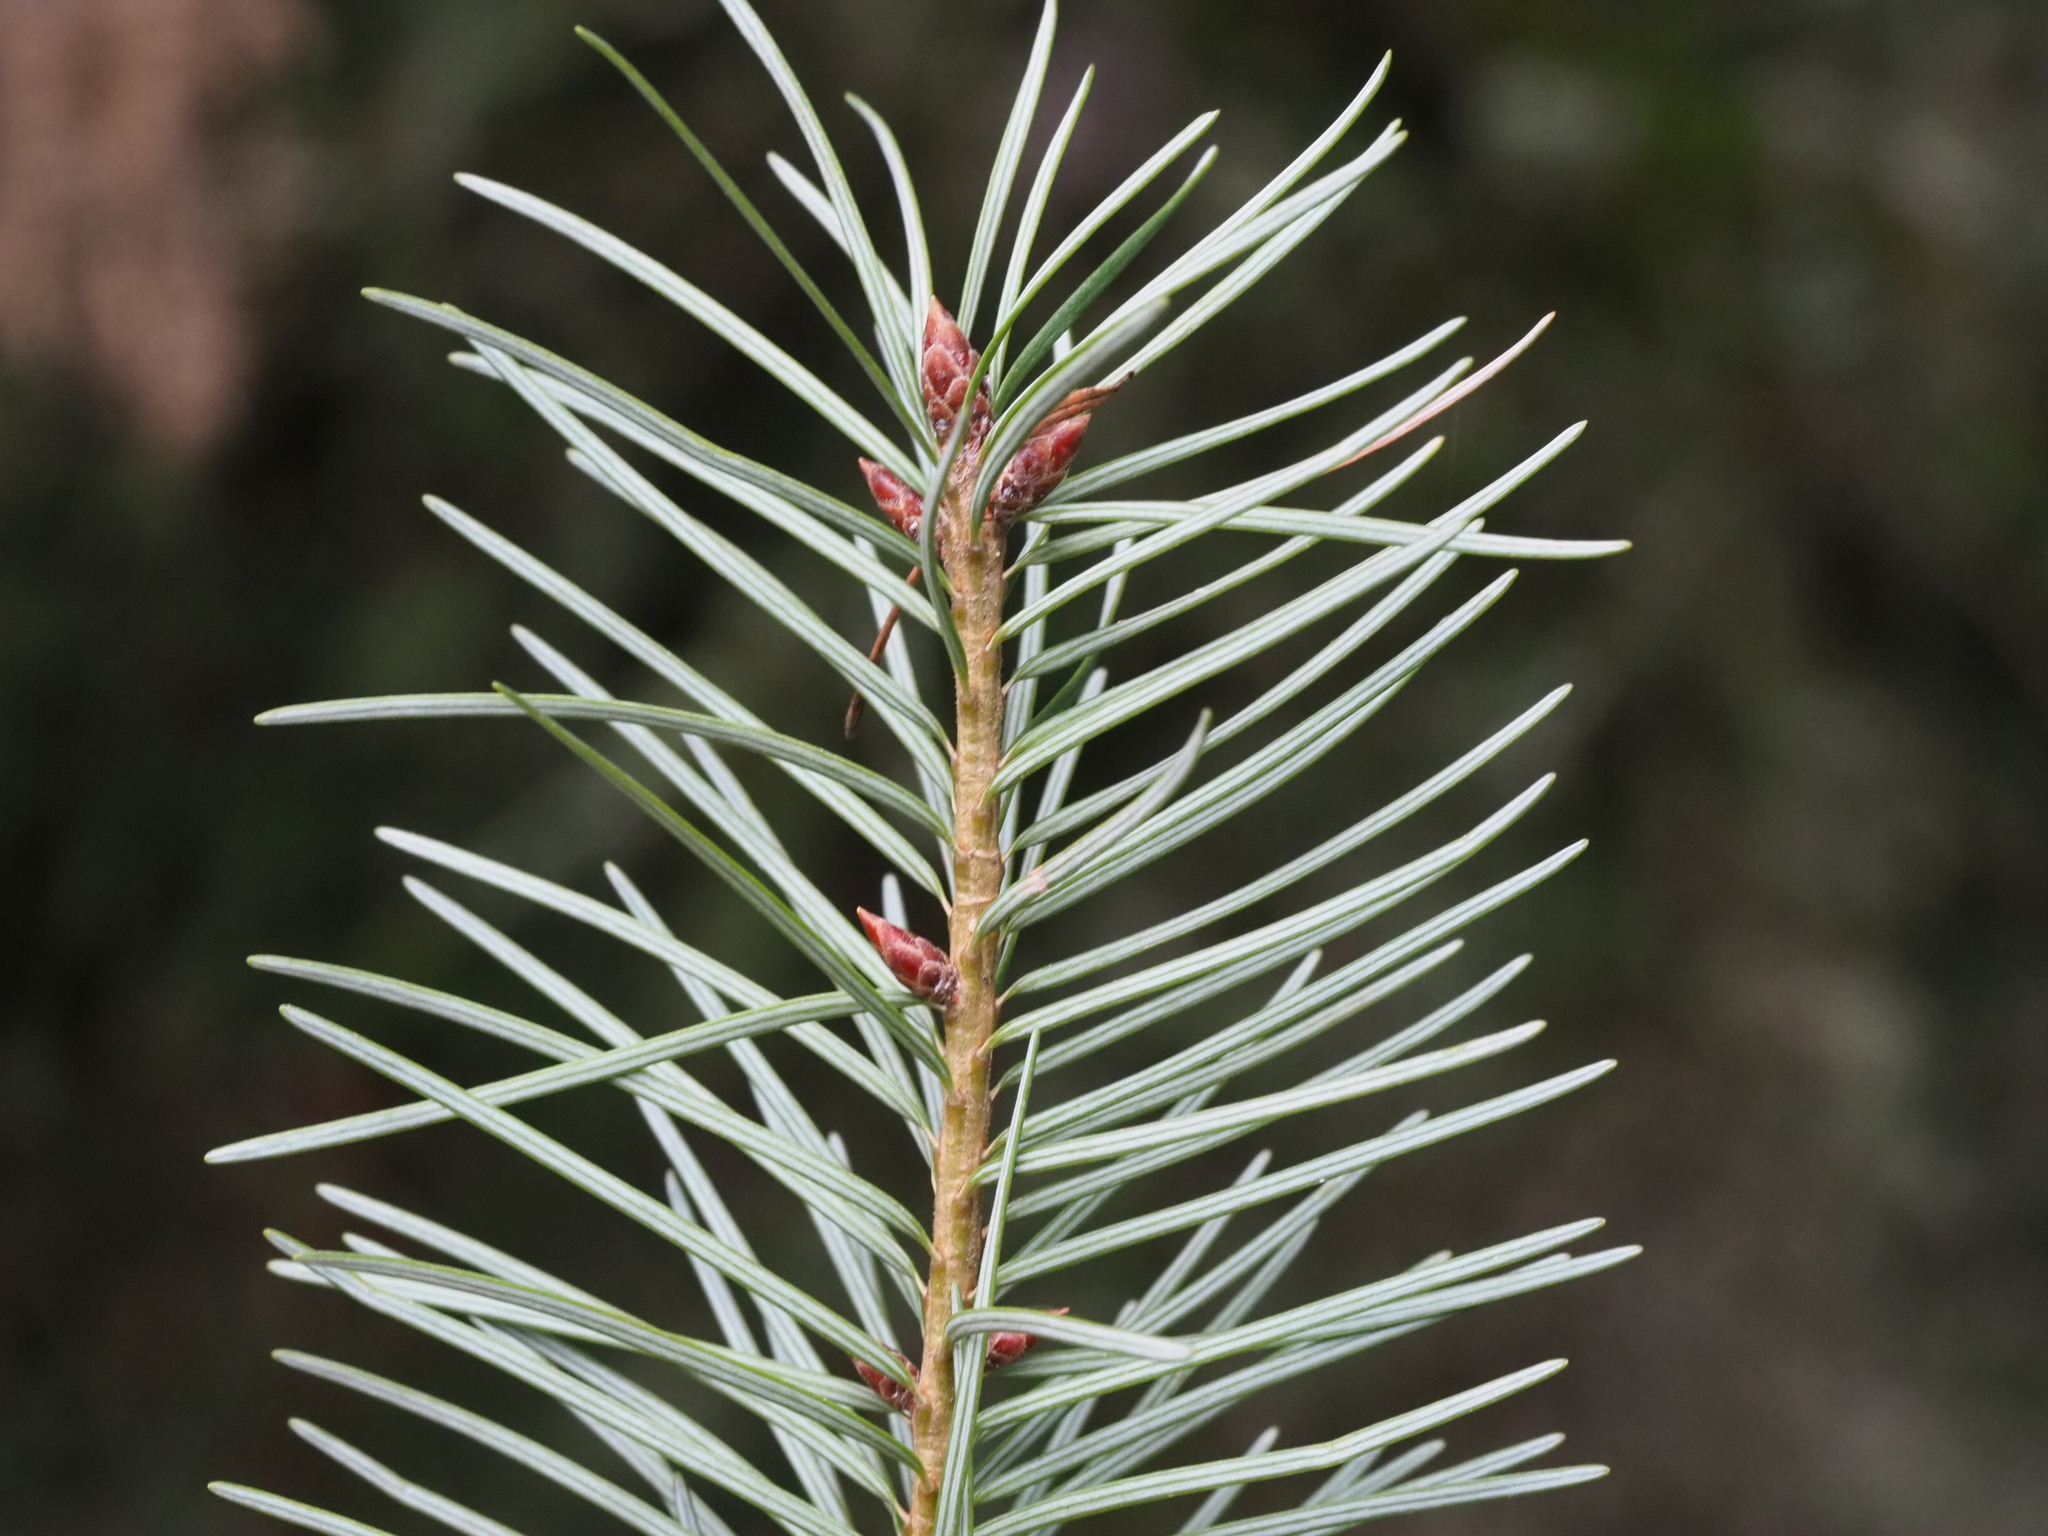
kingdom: Plantae
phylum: Tracheophyta
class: Pinopsida
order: Pinales
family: Pinaceae
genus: Pseudotsuga
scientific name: Pseudotsuga menziesii
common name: Douglas fir
